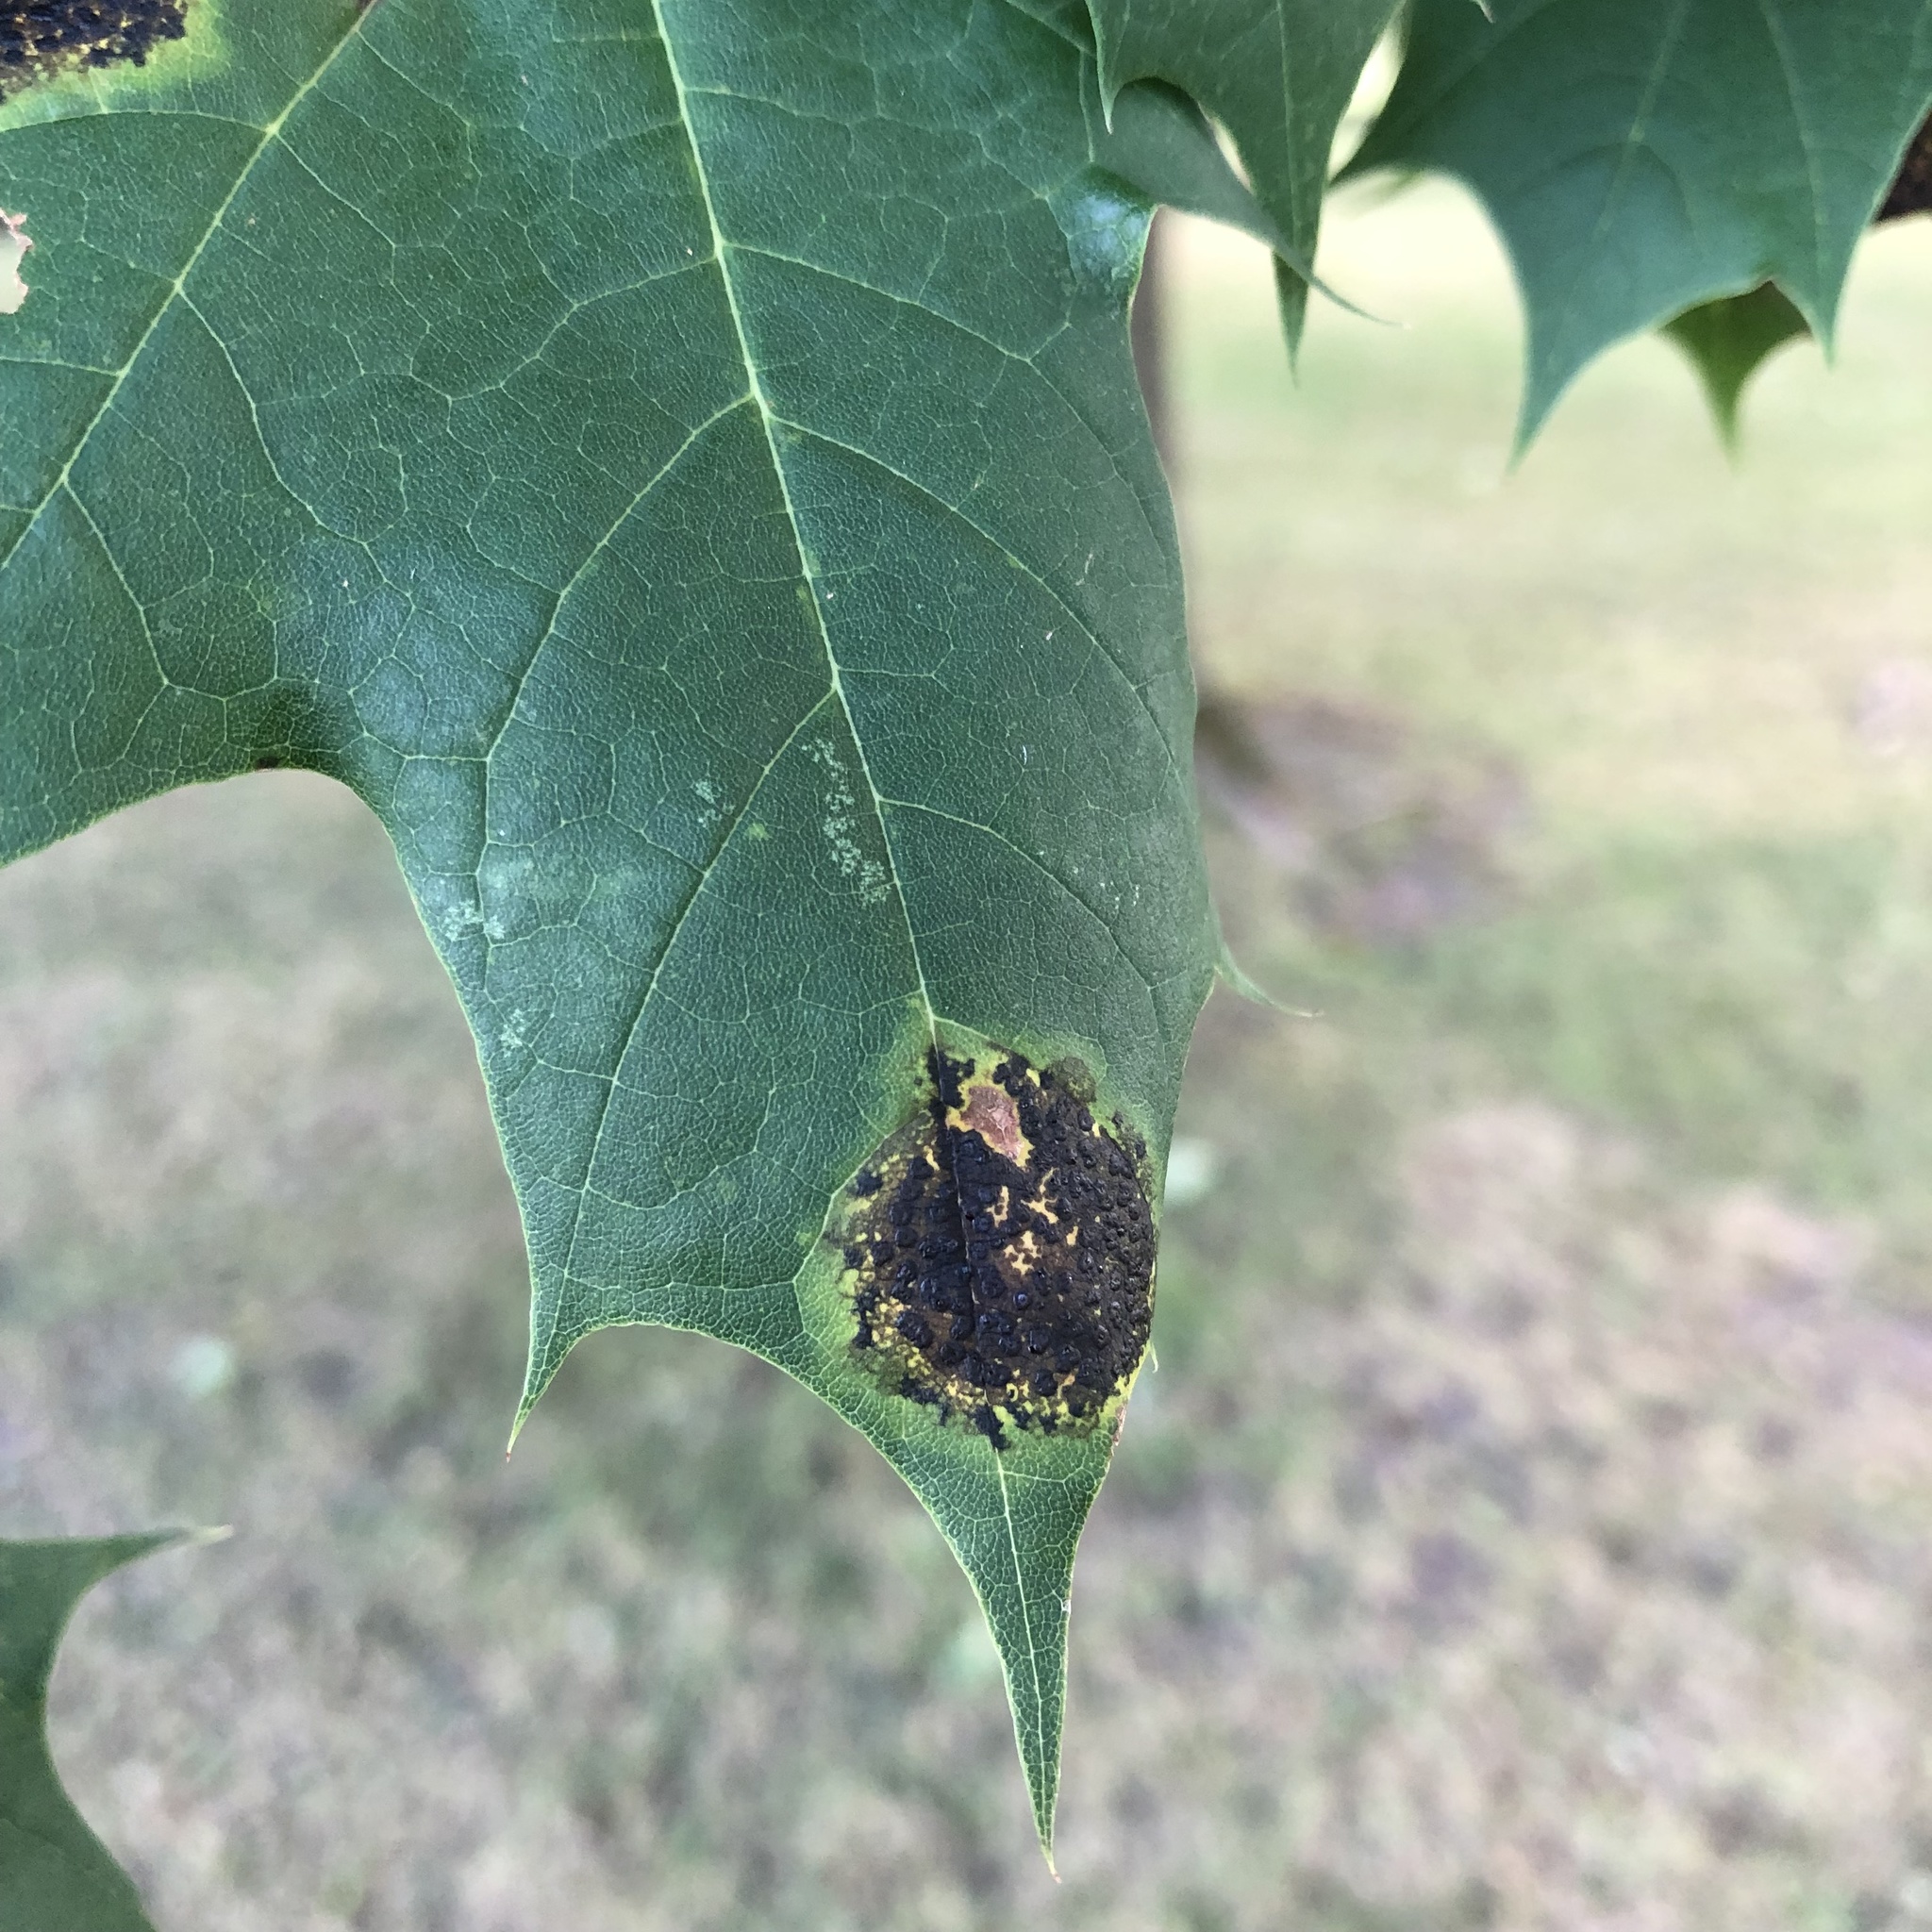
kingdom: Fungi
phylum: Ascomycota
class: Leotiomycetes
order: Rhytismatales
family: Rhytismataceae
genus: Rhytisma
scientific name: Rhytisma acerinum
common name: European tar spot
